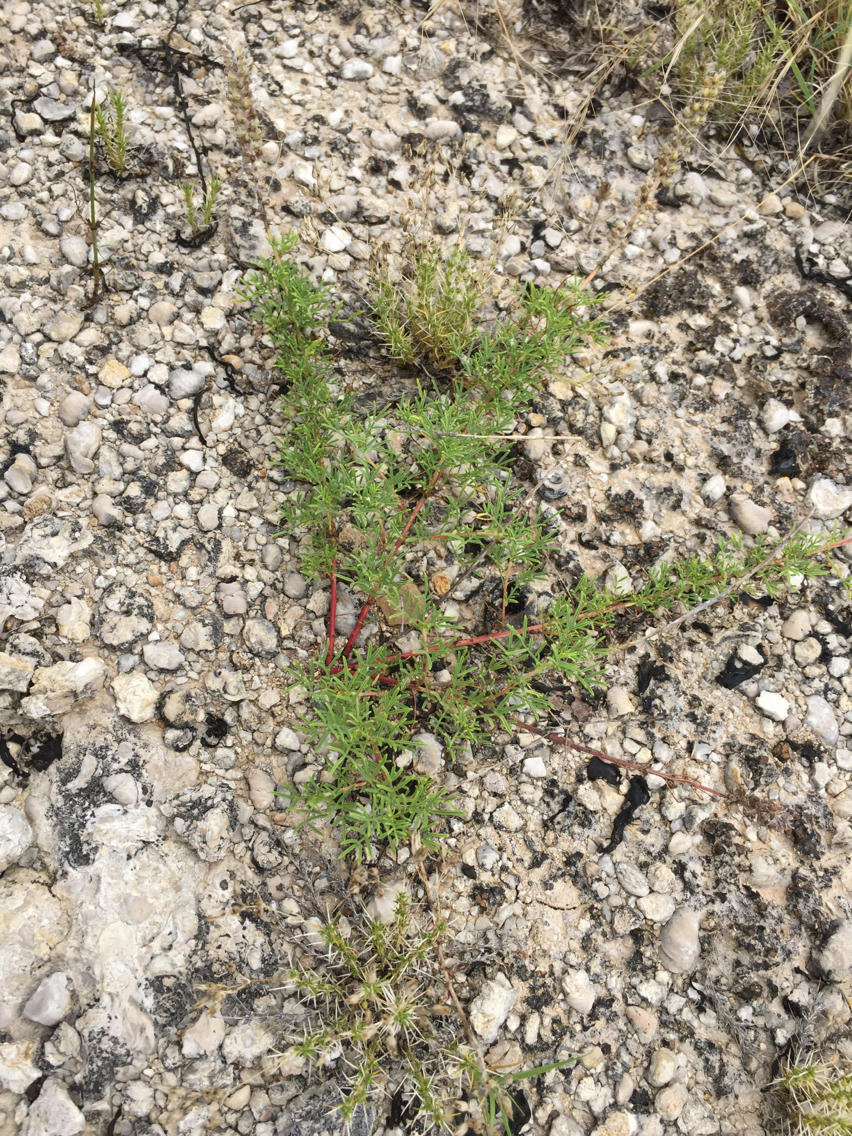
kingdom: Plantae
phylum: Tracheophyta
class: Magnoliopsida
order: Fabales
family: Fabaceae
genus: Dalea
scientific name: Dalea reverchonii
